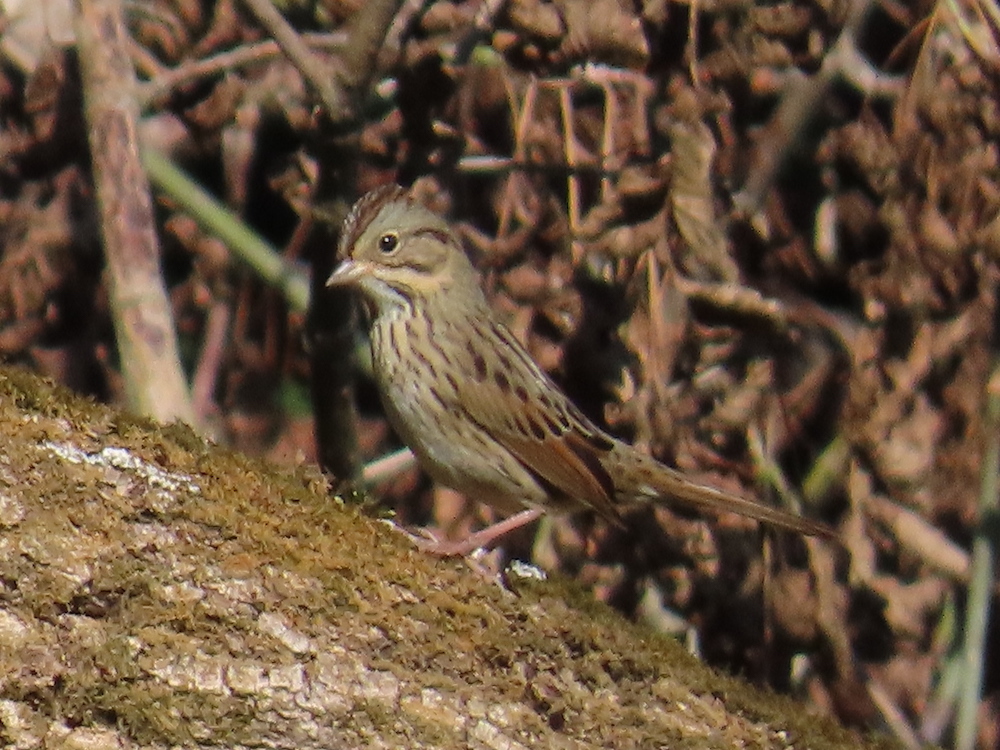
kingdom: Animalia
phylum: Chordata
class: Aves
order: Passeriformes
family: Passerellidae
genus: Melospiza
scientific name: Melospiza lincolnii
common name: Lincoln's sparrow
